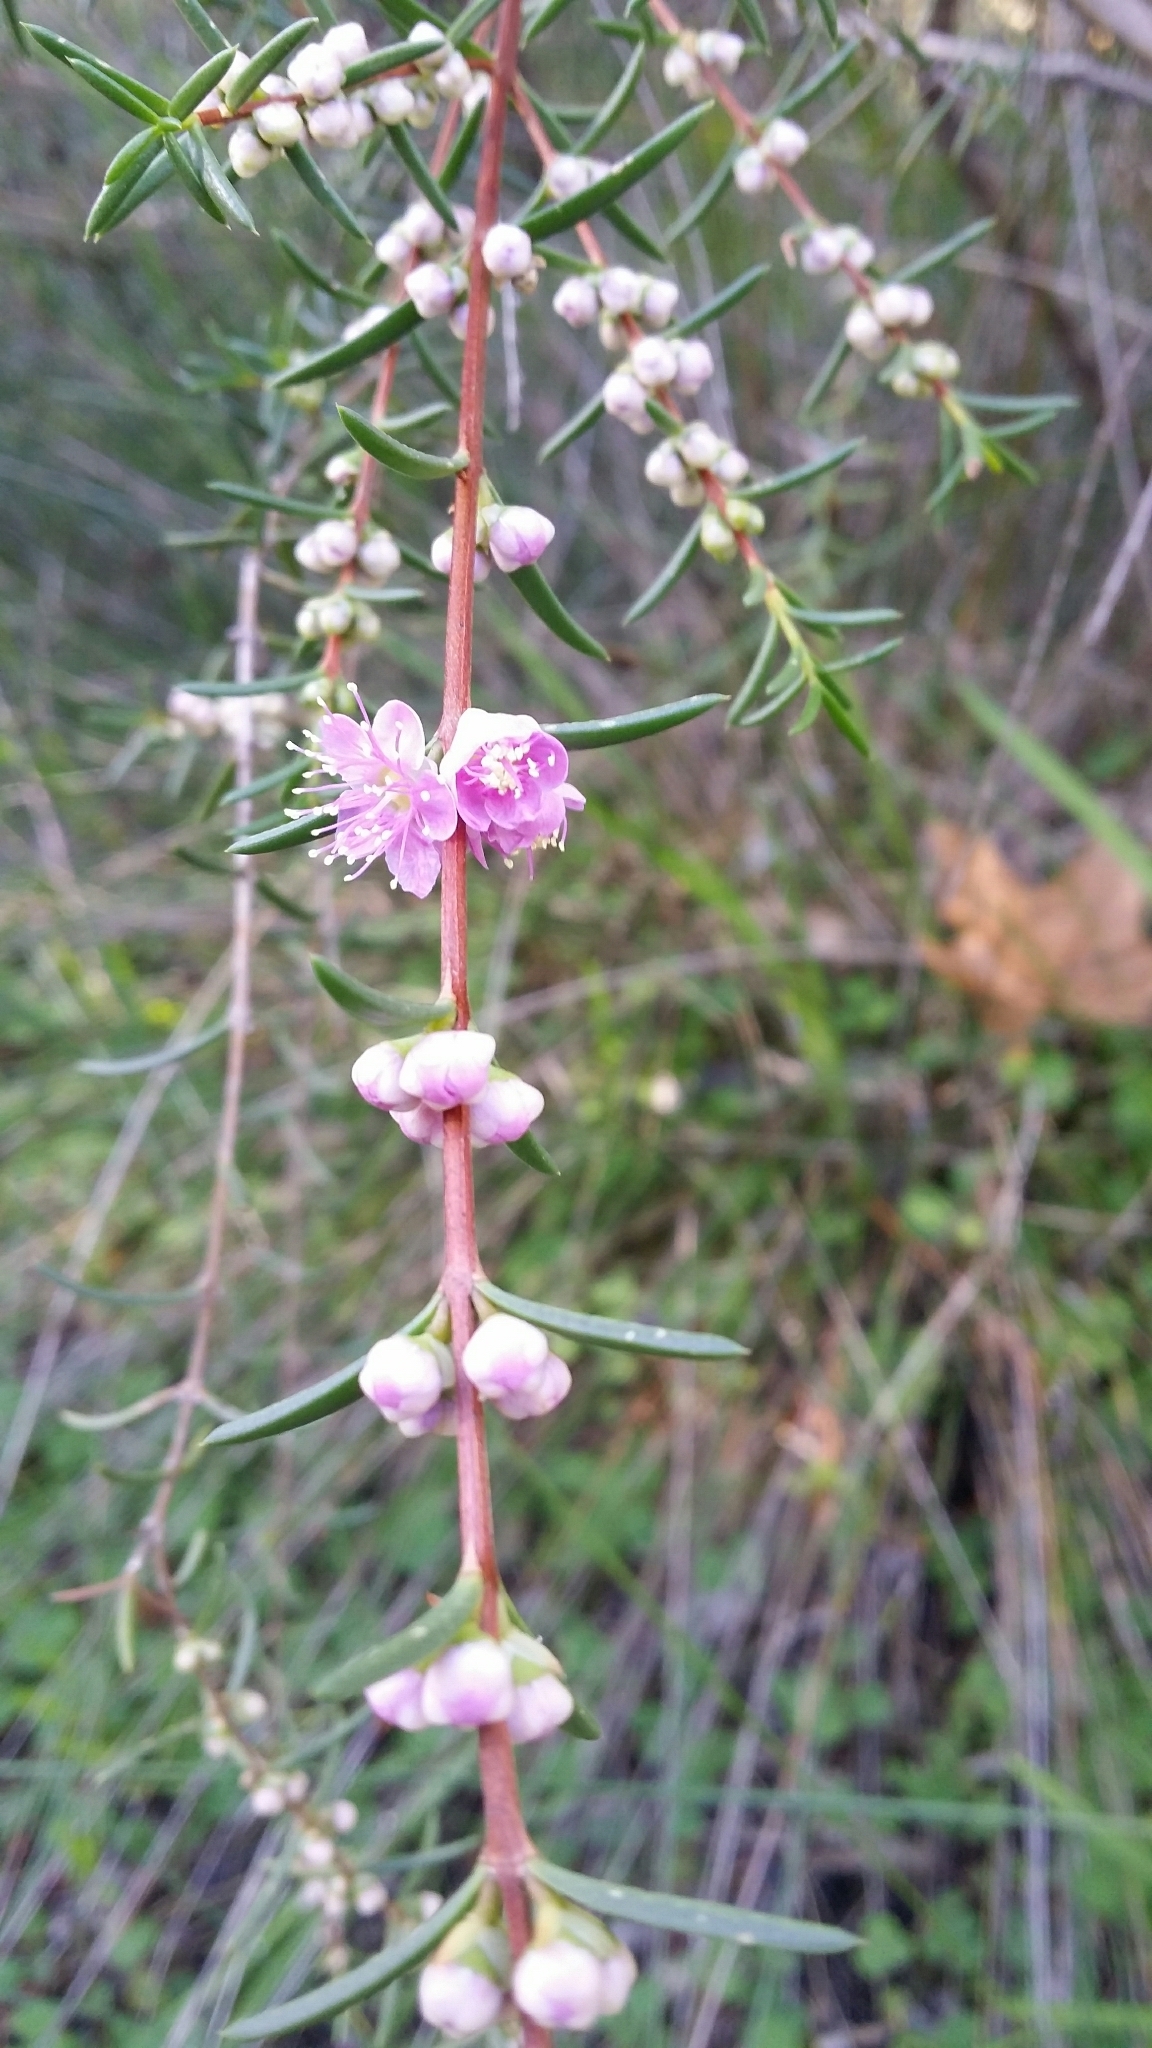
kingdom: Plantae
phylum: Tracheophyta
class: Magnoliopsida
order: Myrtales
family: Myrtaceae
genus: Hypocalymma
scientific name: Hypocalymma robustum
